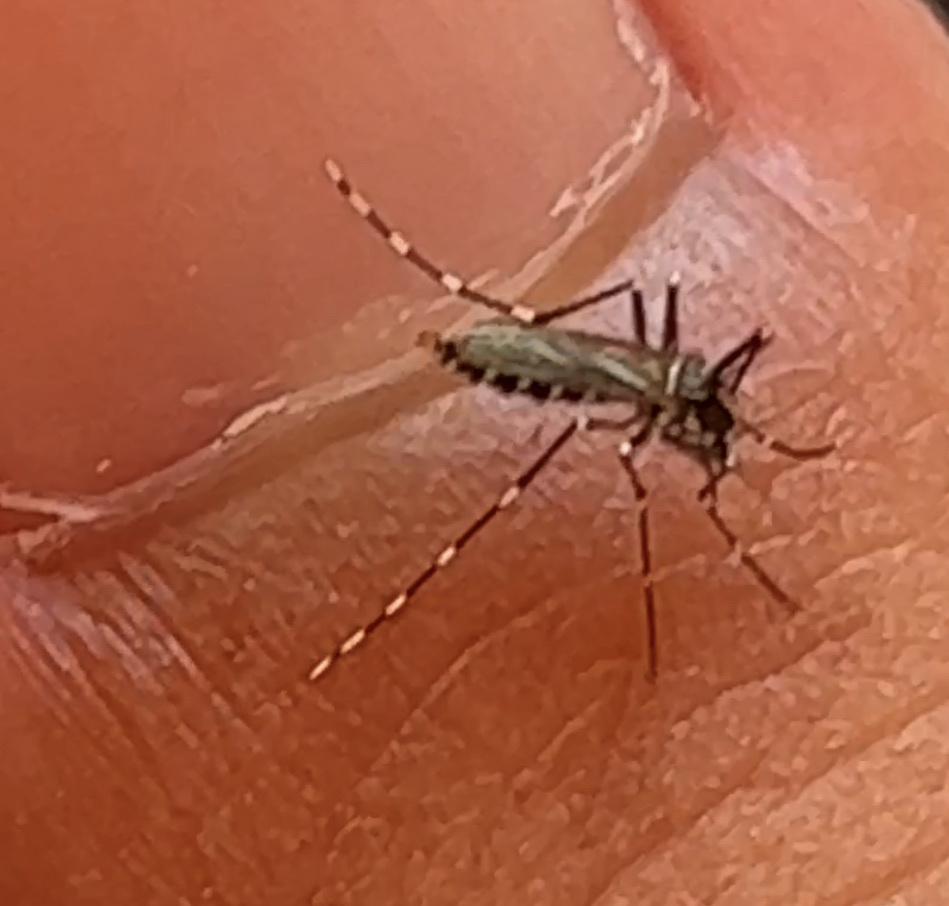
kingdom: Animalia
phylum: Arthropoda
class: Insecta
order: Diptera
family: Culicidae
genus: Aedes
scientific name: Aedes albopictus
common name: Tiger mosquito
